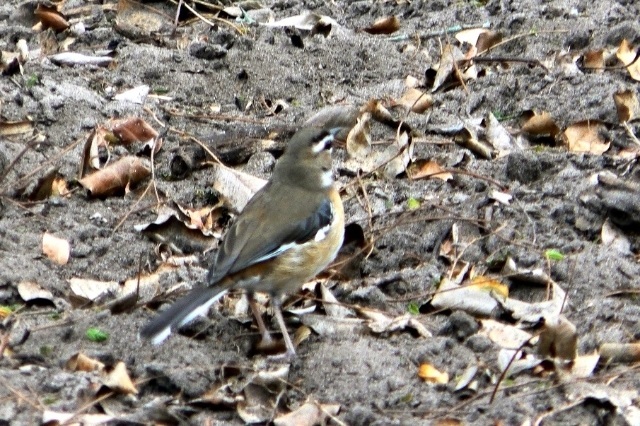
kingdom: Animalia
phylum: Chordata
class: Aves
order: Passeriformes
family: Muscicapidae
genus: Erythropygia
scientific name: Erythropygia quadrivirgata
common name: Bearded scrub robin
